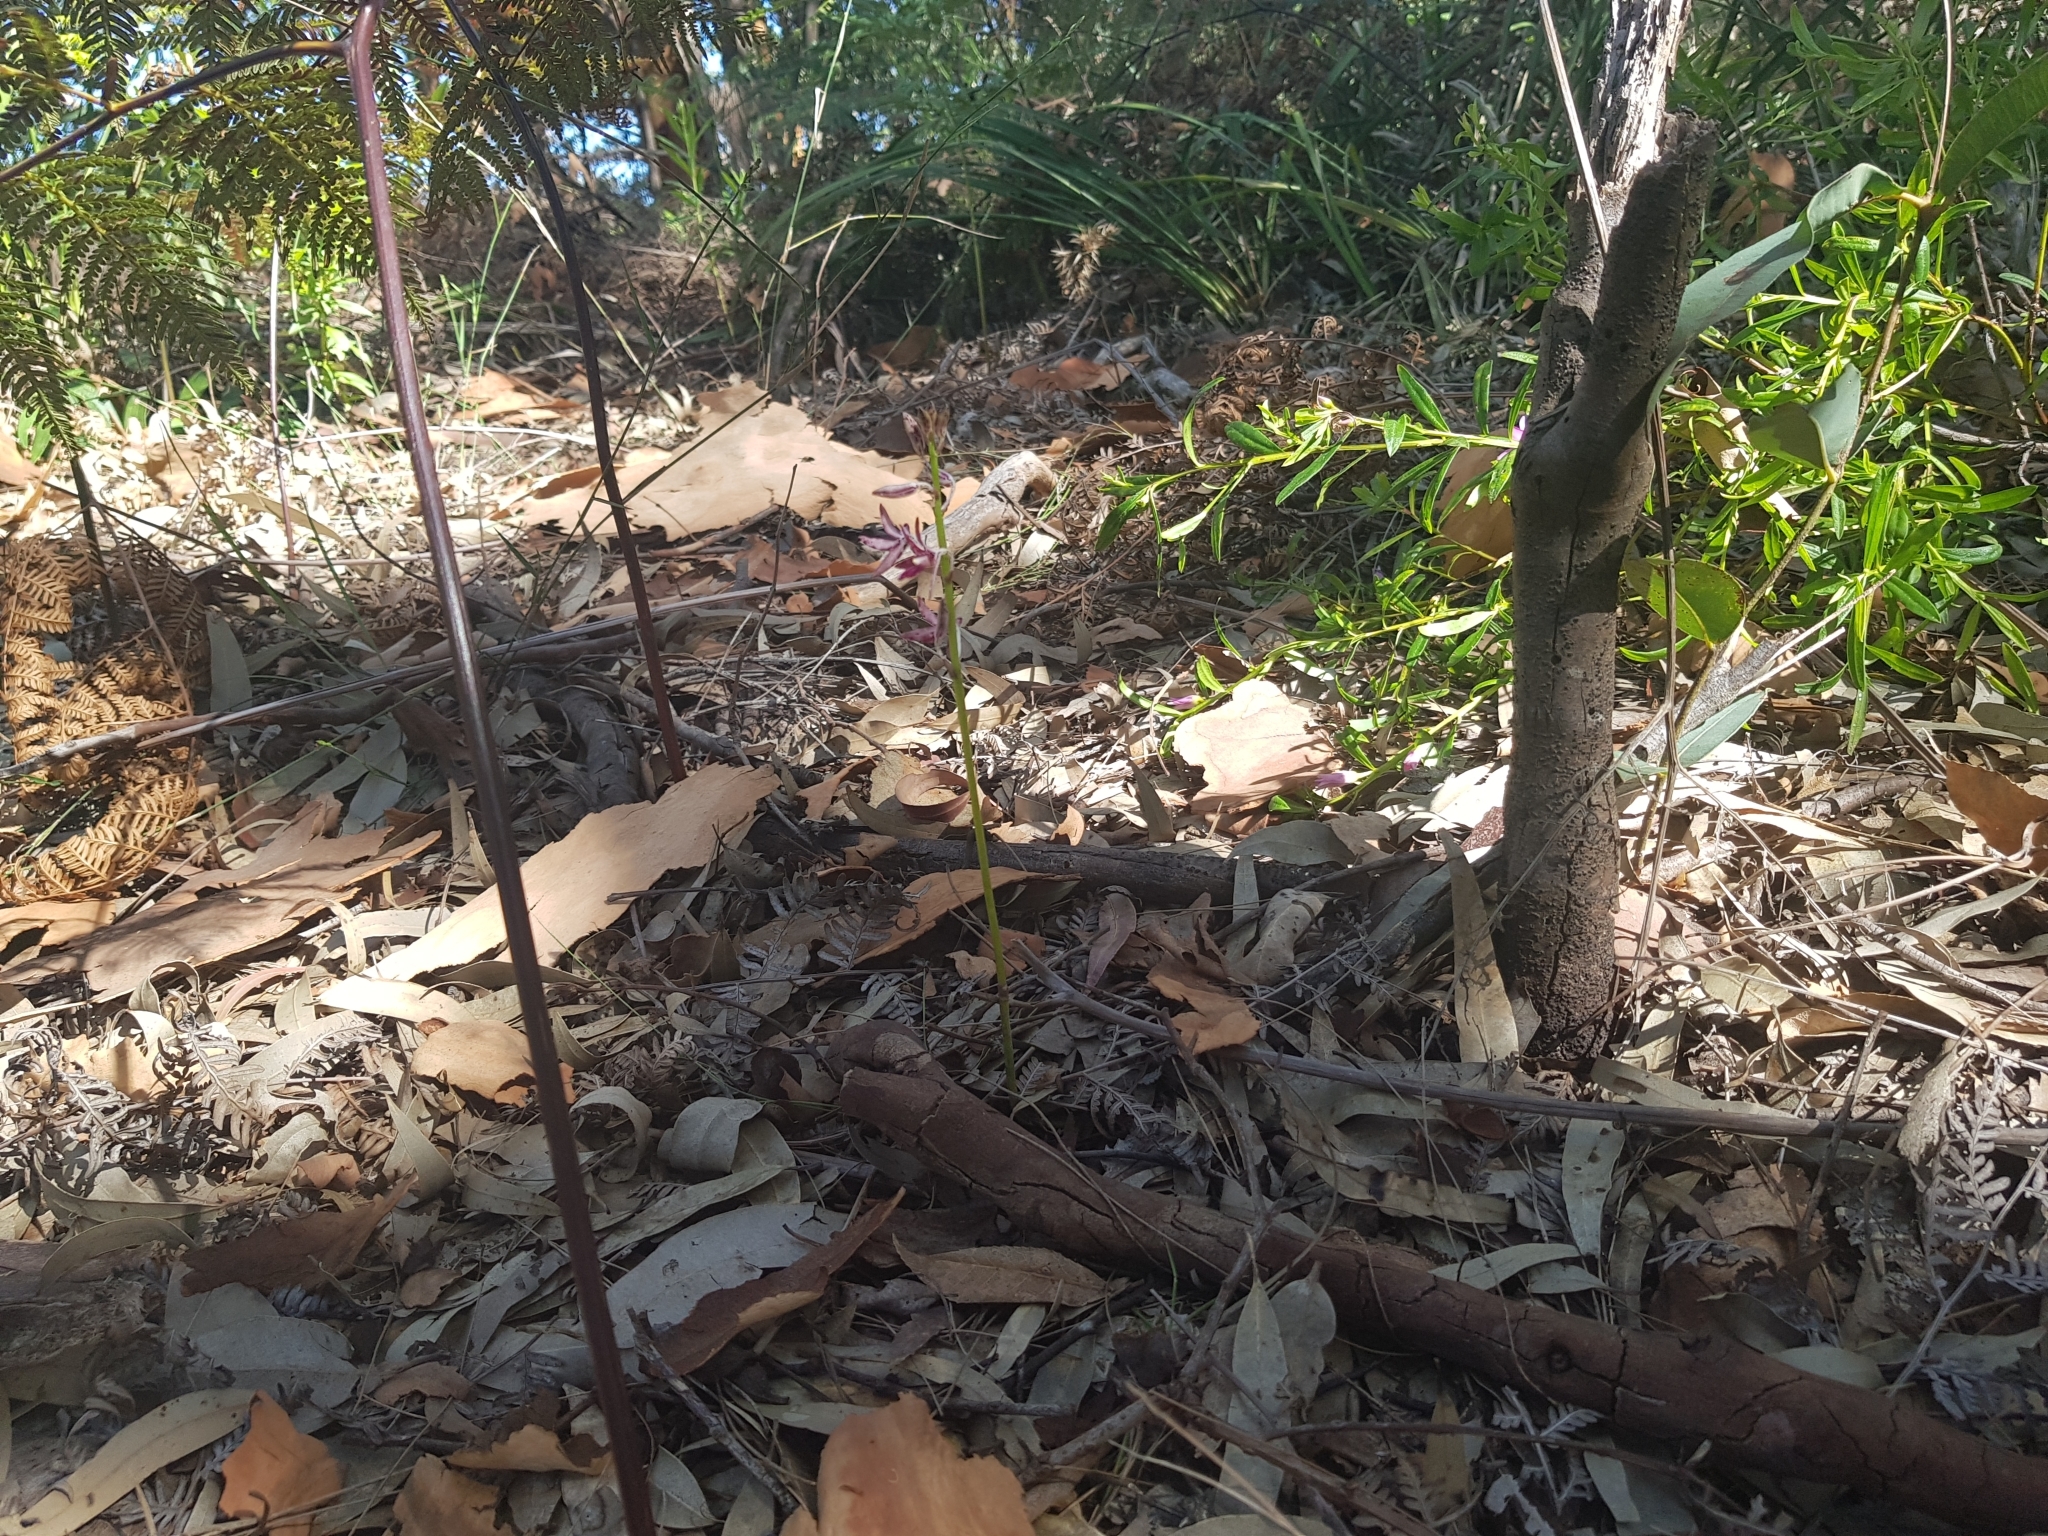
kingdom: Plantae
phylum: Tracheophyta
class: Liliopsida
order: Asparagales
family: Orchidaceae
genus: Dipodium
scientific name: Dipodium variegatum
